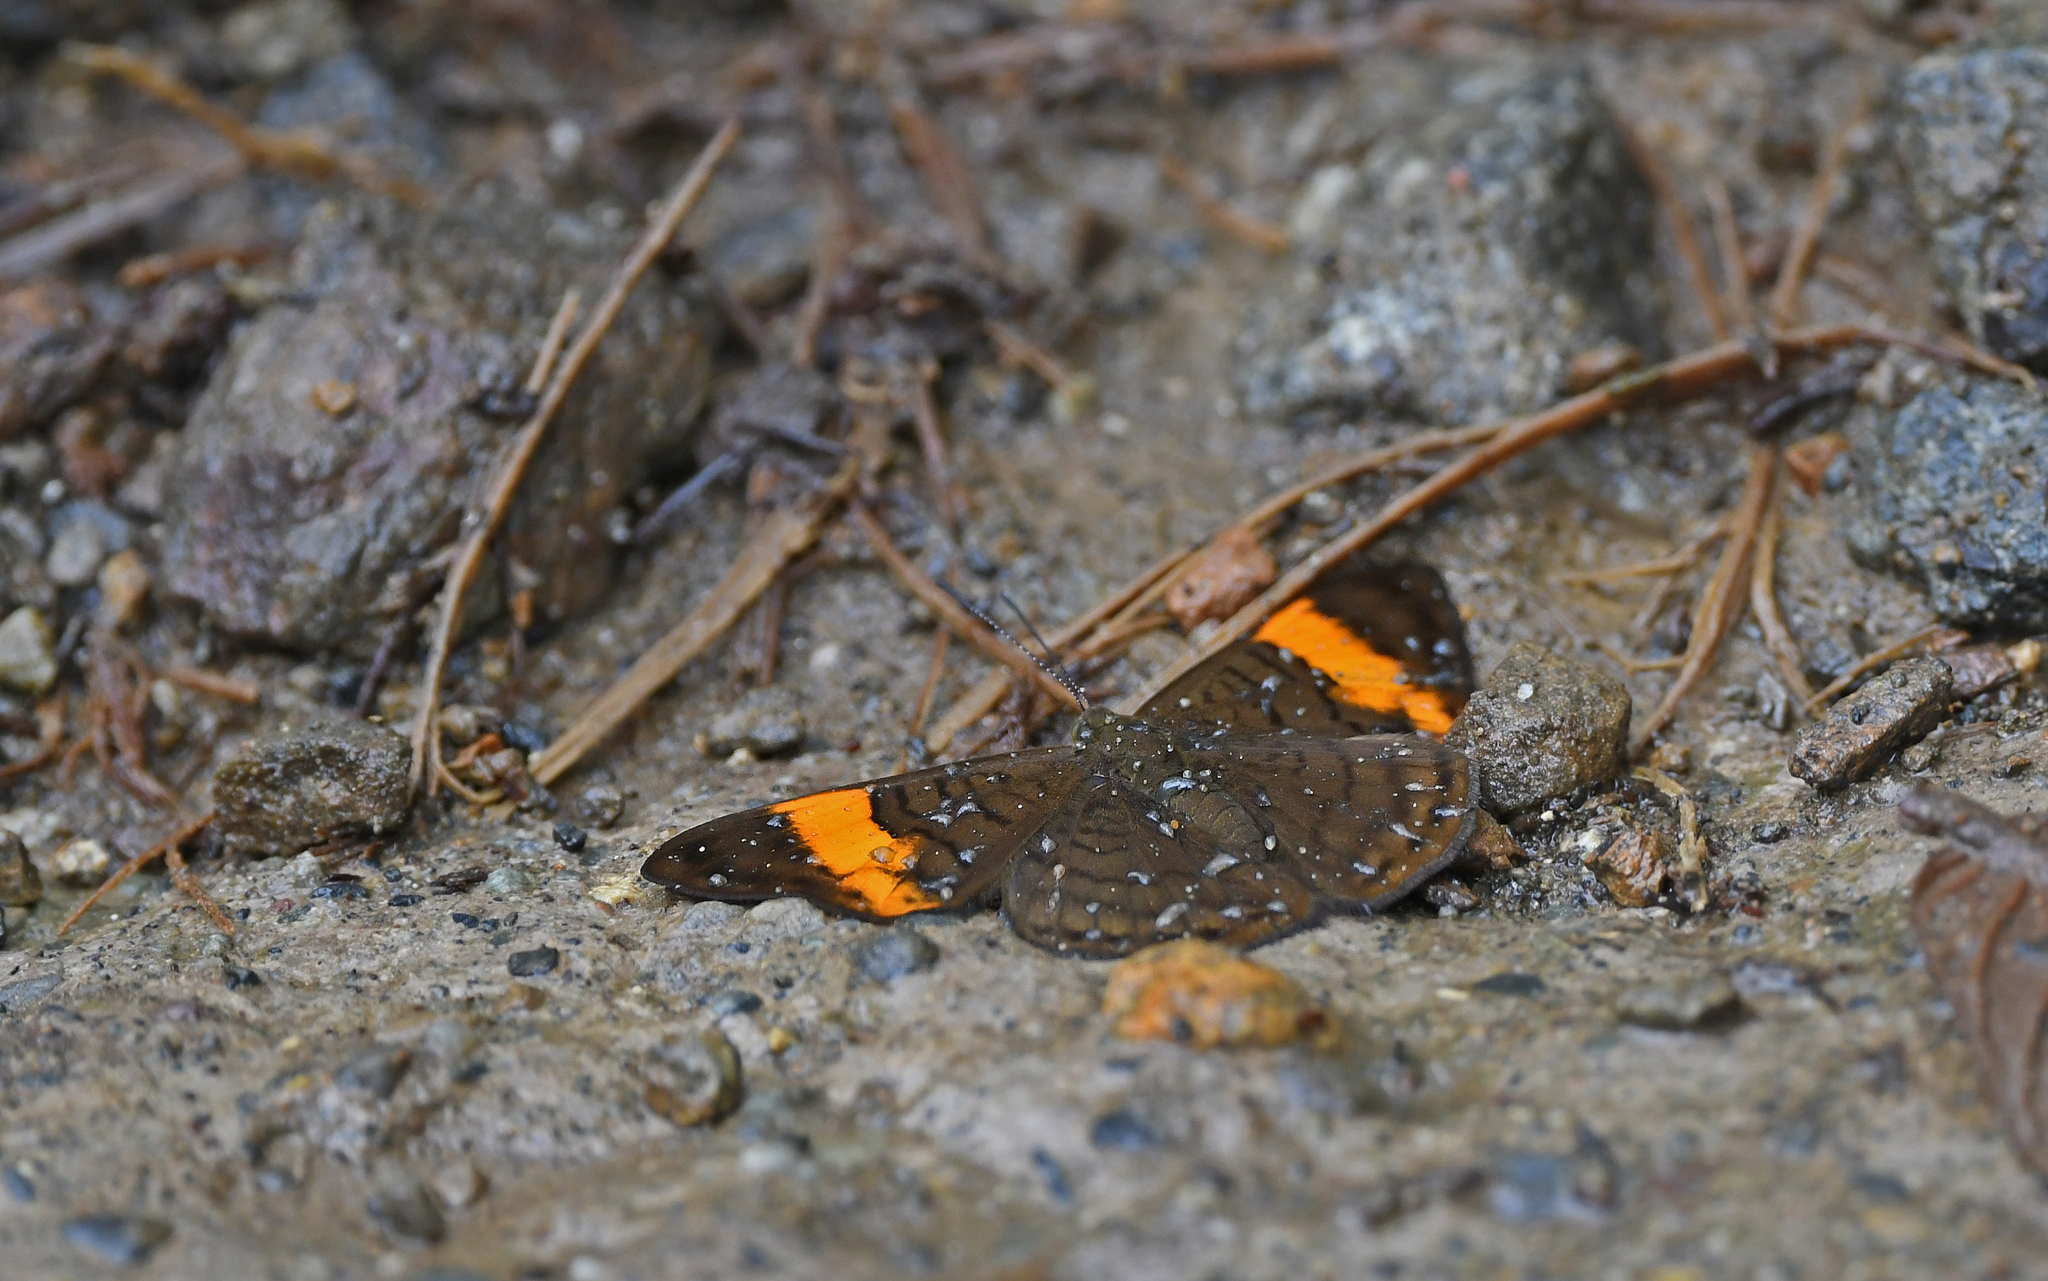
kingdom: Animalia
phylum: Arthropoda
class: Insecta
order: Lepidoptera
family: Lycaenidae
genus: Emesis
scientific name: Emesis cypria
